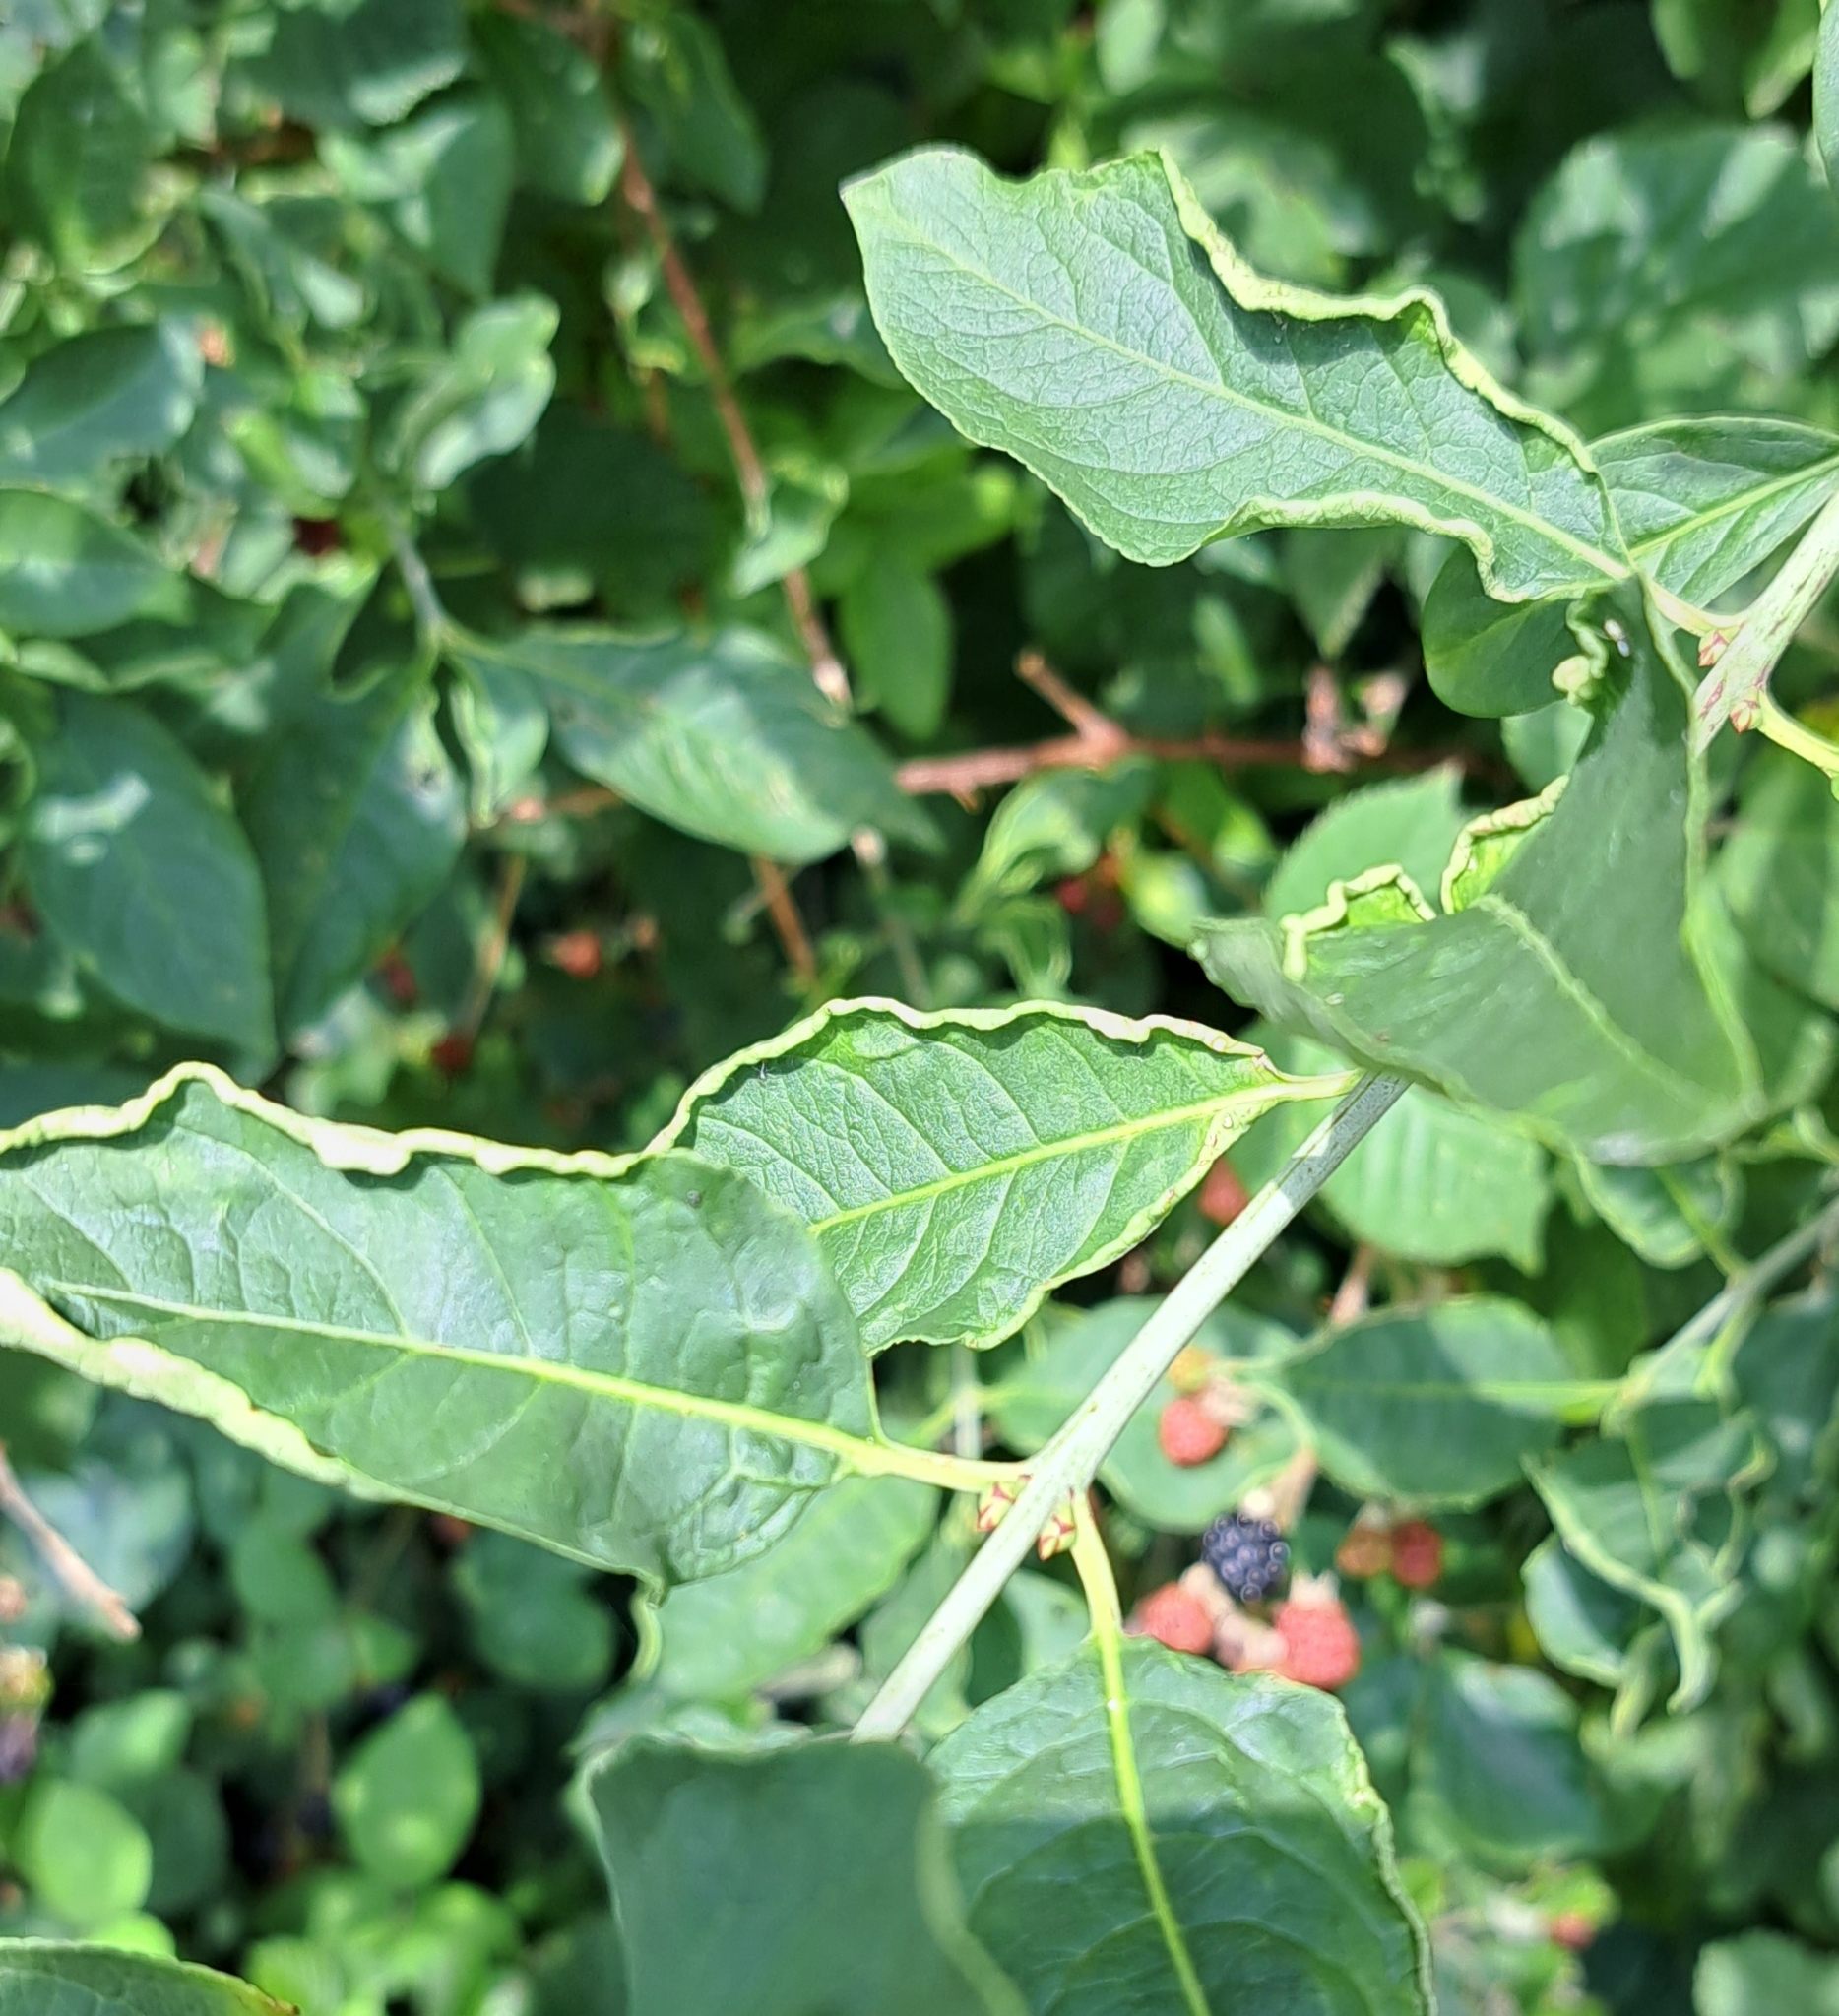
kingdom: Animalia
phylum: Arthropoda
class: Arachnida
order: Trombidiformes
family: Eriophyidae
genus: Stenacis
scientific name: Stenacis evonymi
